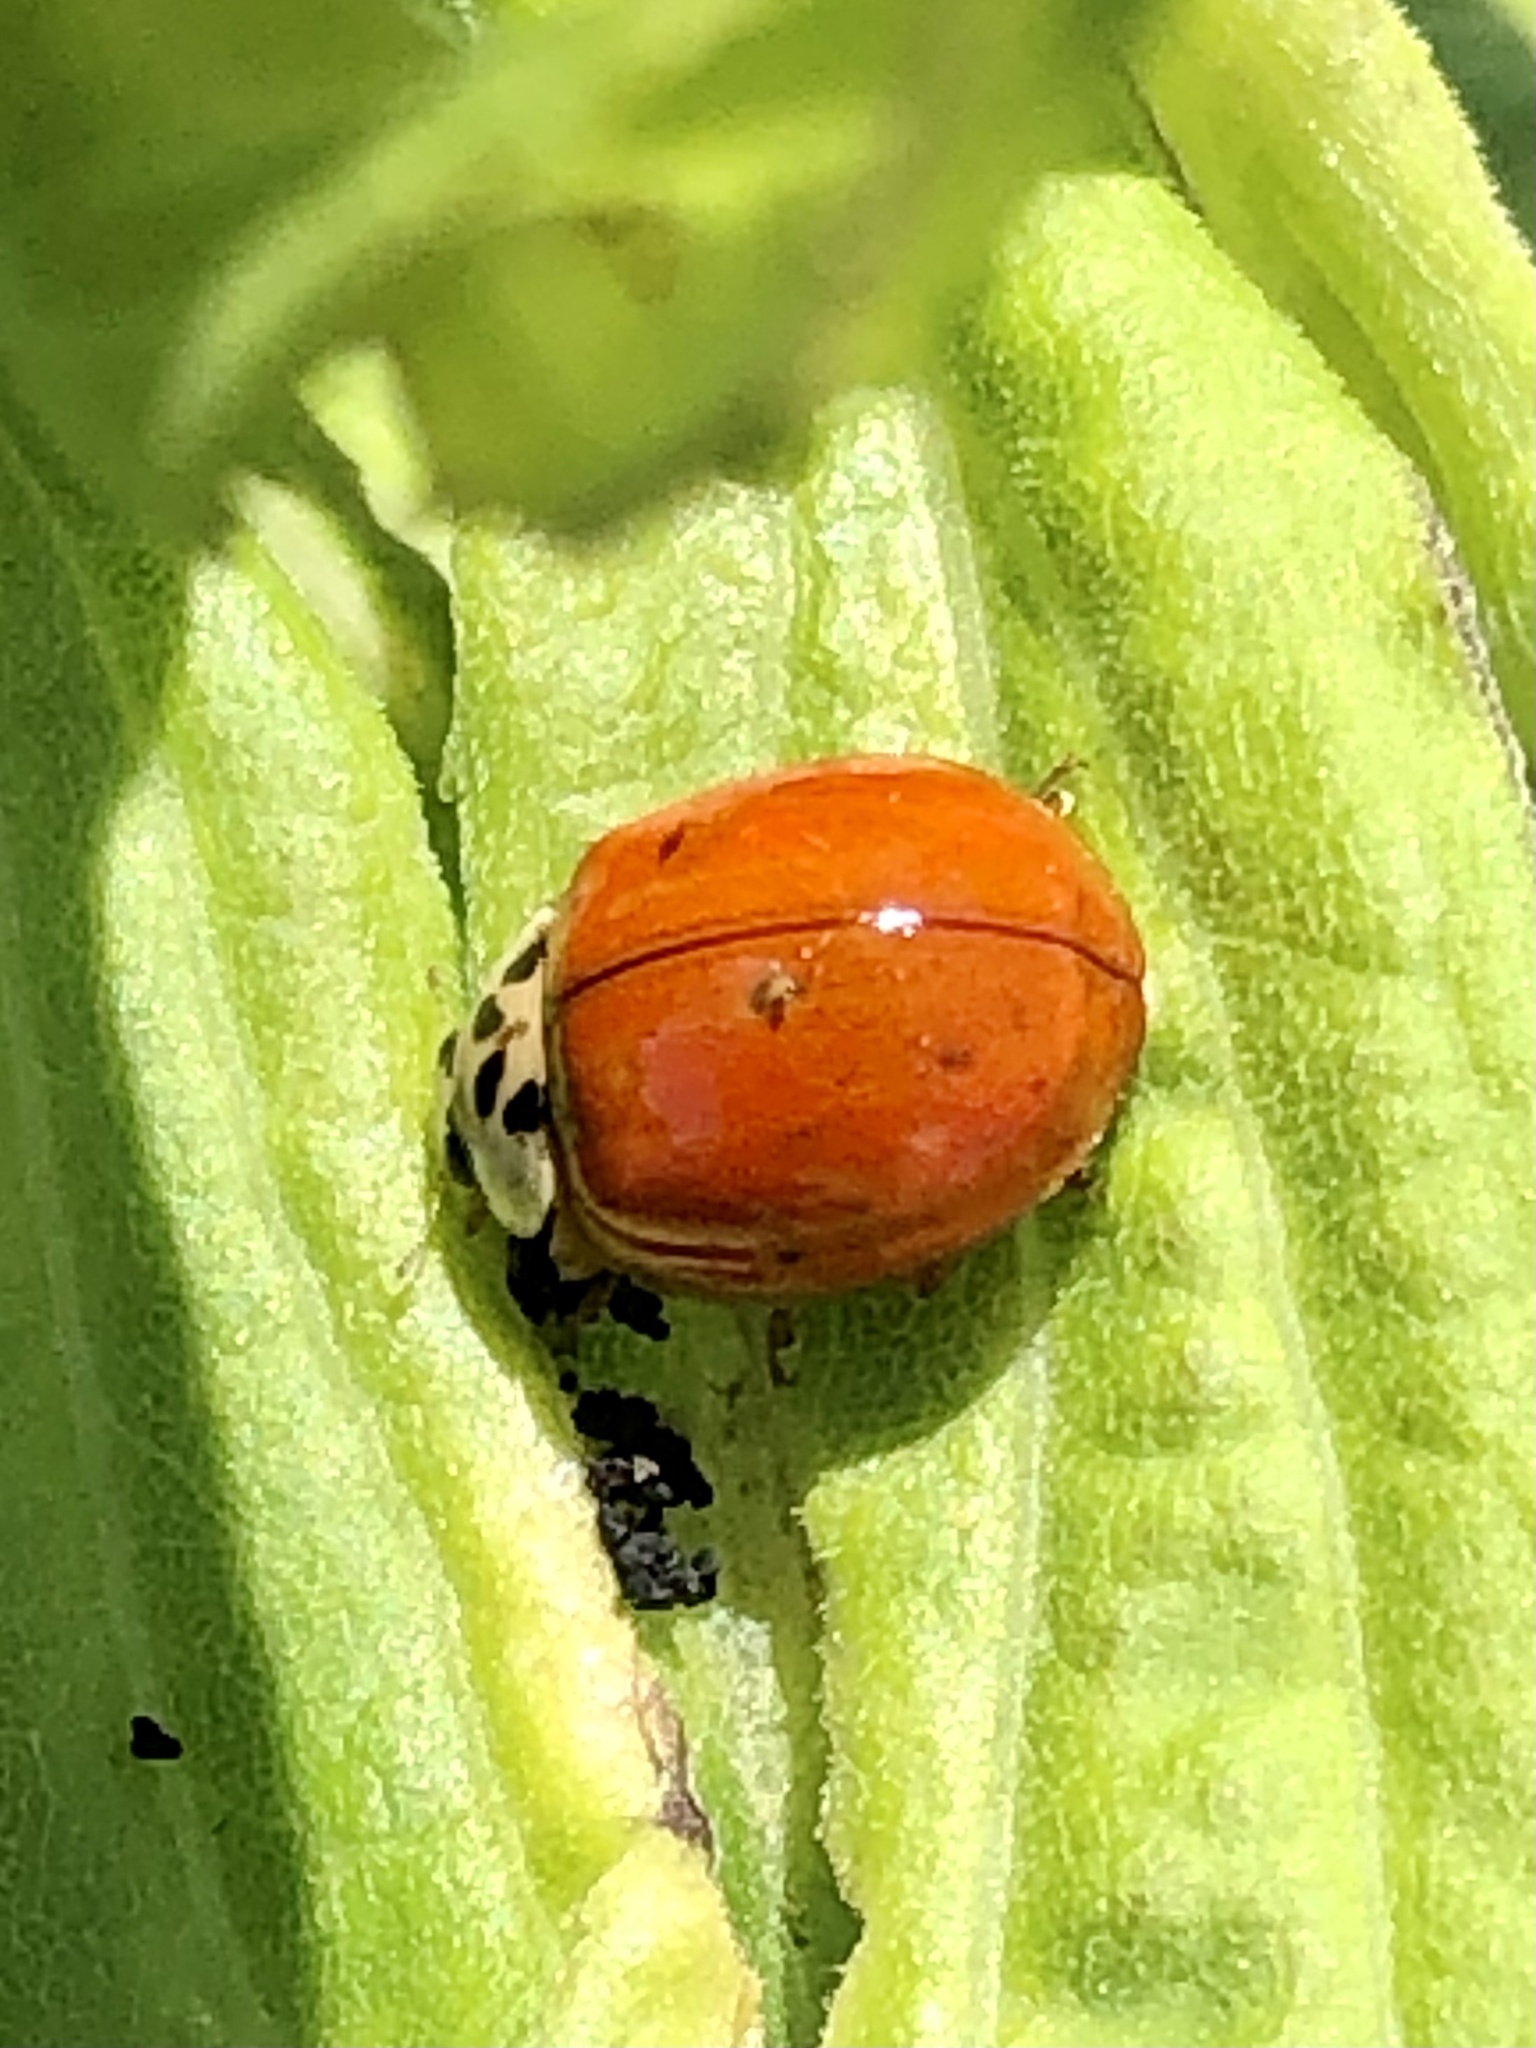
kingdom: Animalia
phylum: Arthropoda
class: Insecta
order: Coleoptera
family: Coccinellidae
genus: Harmonia
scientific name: Harmonia axyridis
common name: Harlequin ladybird
